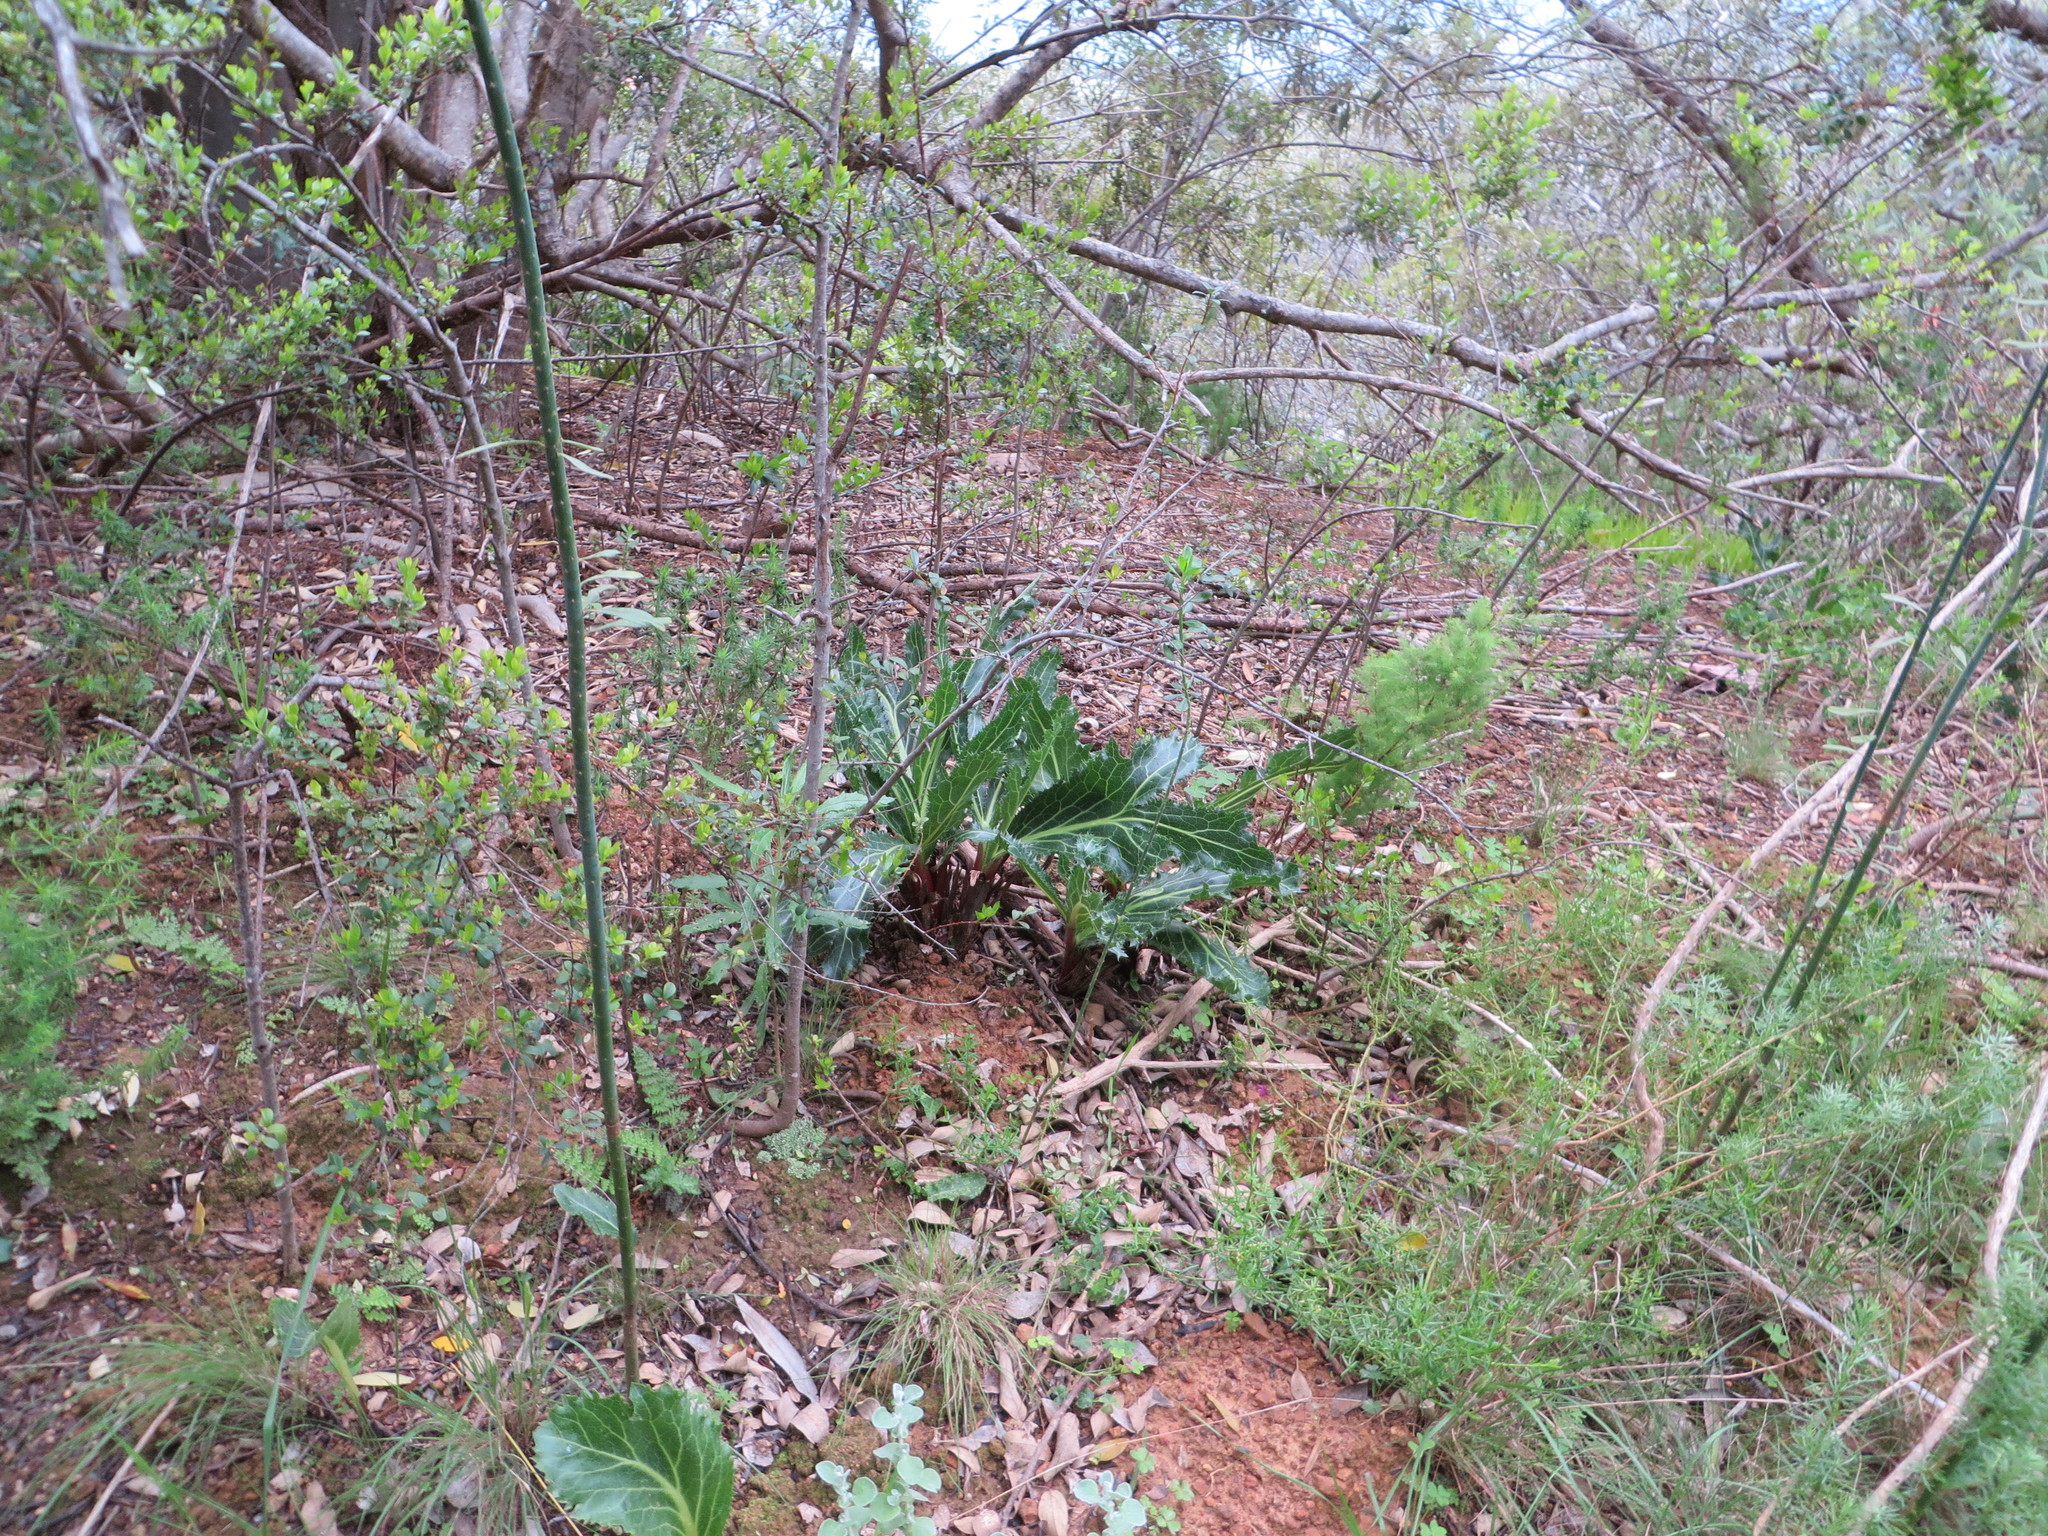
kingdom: Plantae
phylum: Tracheophyta
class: Magnoliopsida
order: Apiales
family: Apiaceae
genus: Lichtensteinia
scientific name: Lichtensteinia lacera
